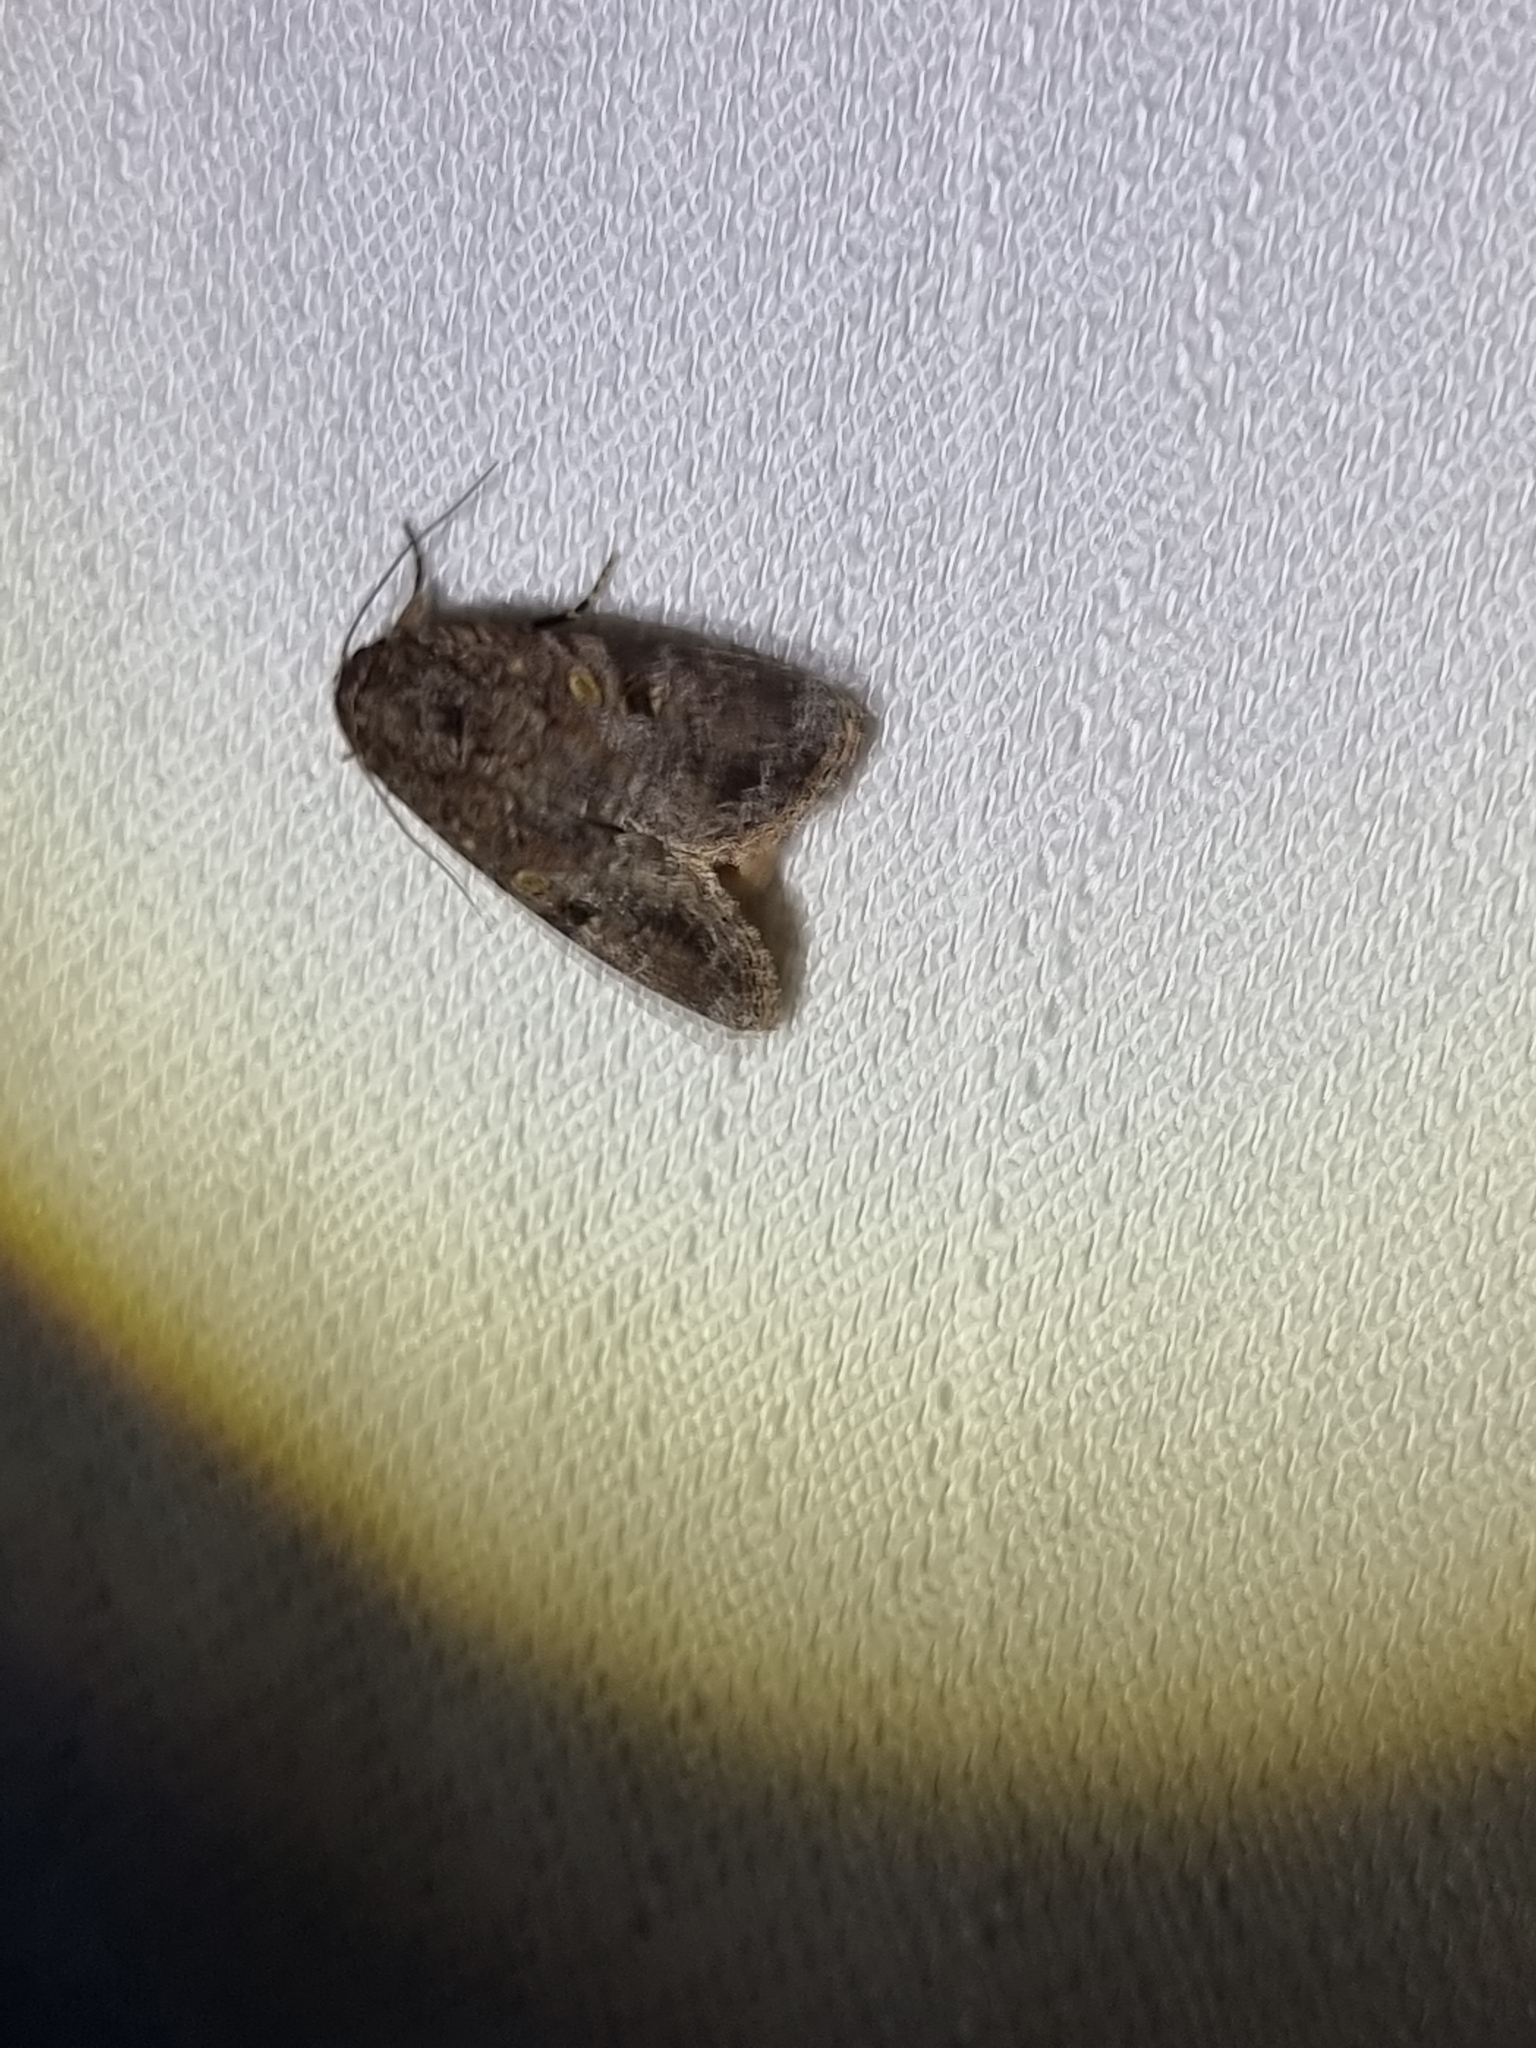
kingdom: Animalia
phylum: Arthropoda
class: Insecta
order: Lepidoptera
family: Noctuidae
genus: Spodoptera
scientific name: Spodoptera mauritia
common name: Lawn armyworm
